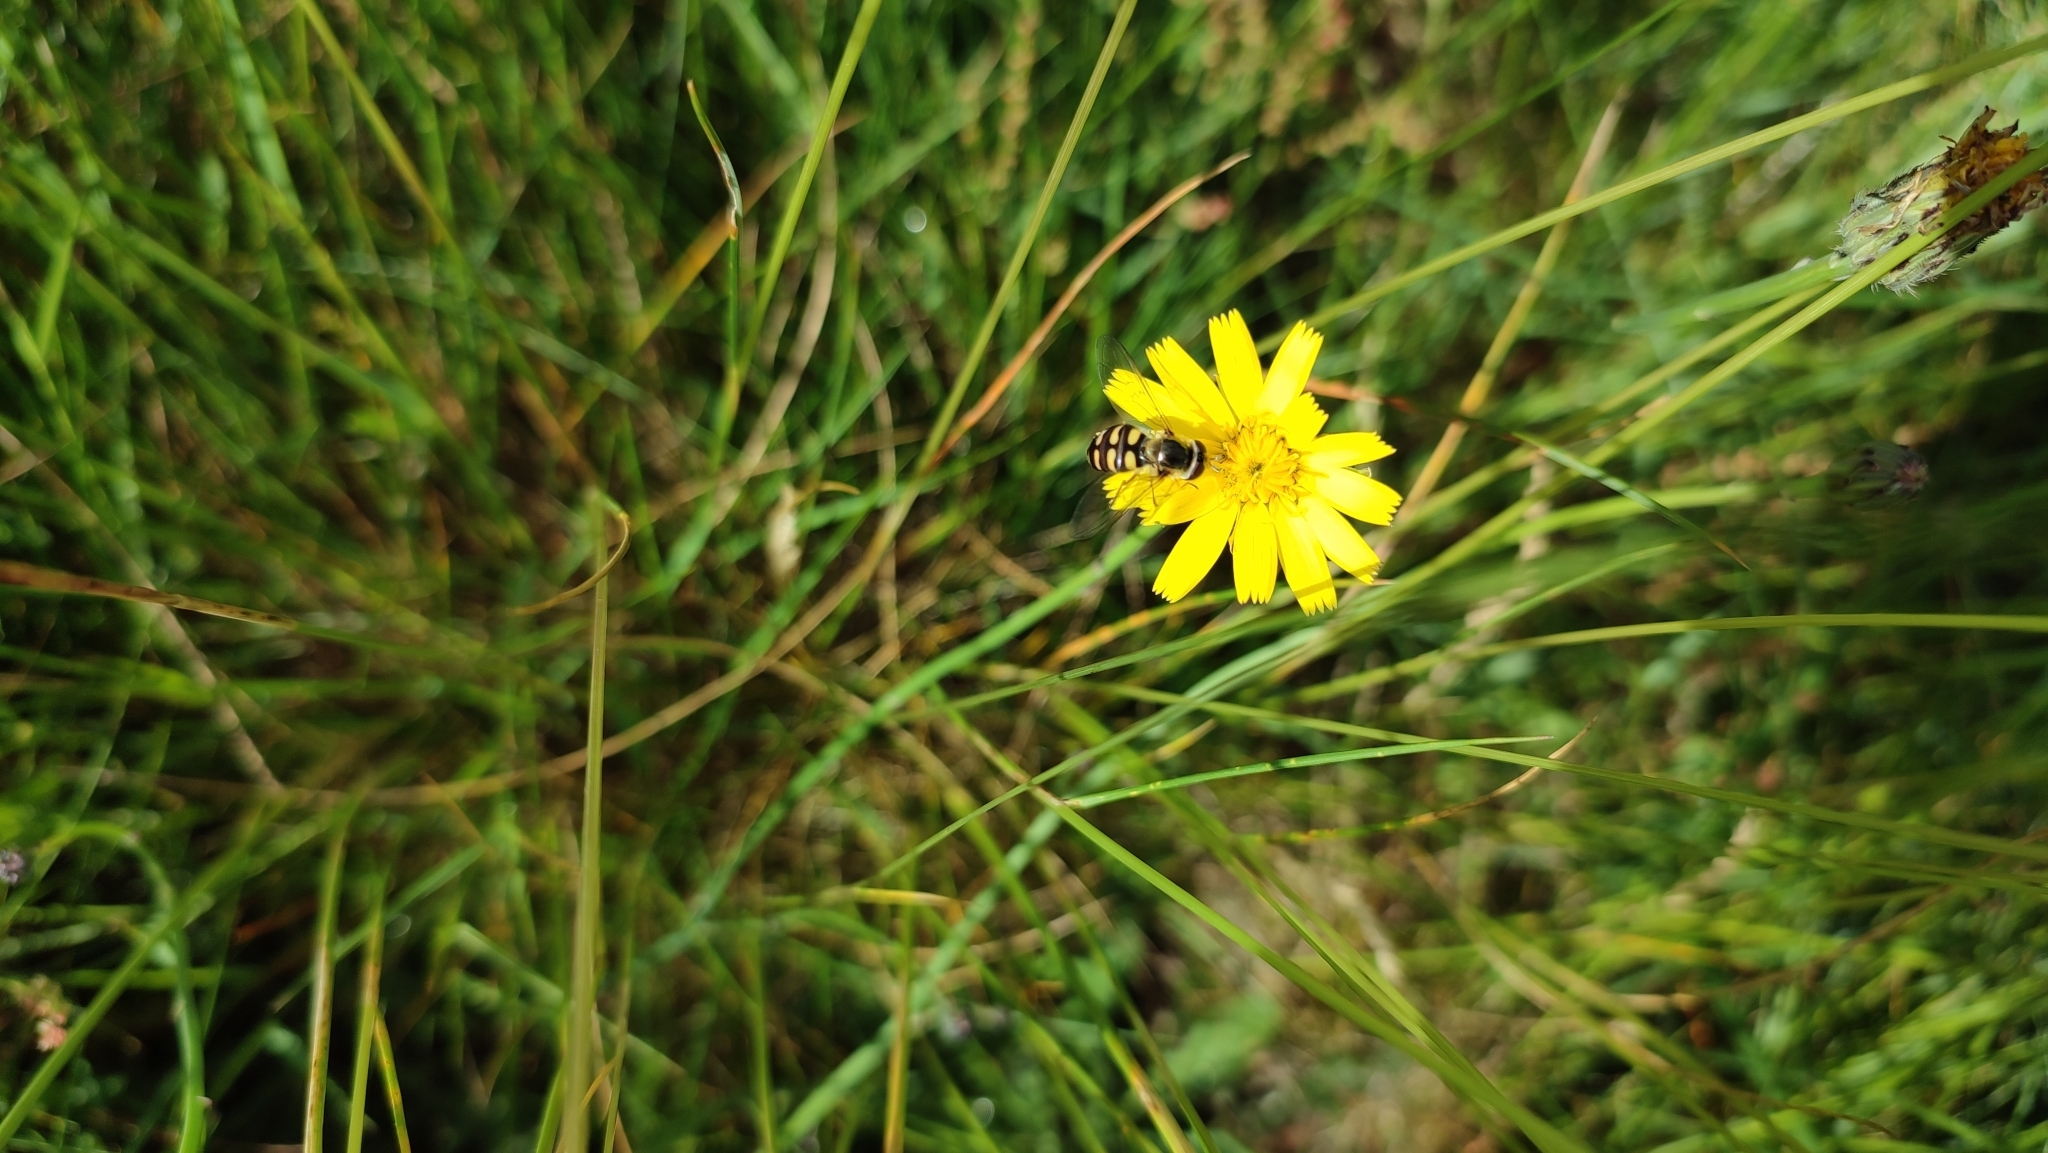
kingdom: Animalia
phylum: Arthropoda
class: Insecta
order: Diptera
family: Syrphidae
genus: Eupeodes
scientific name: Eupeodes corollae
